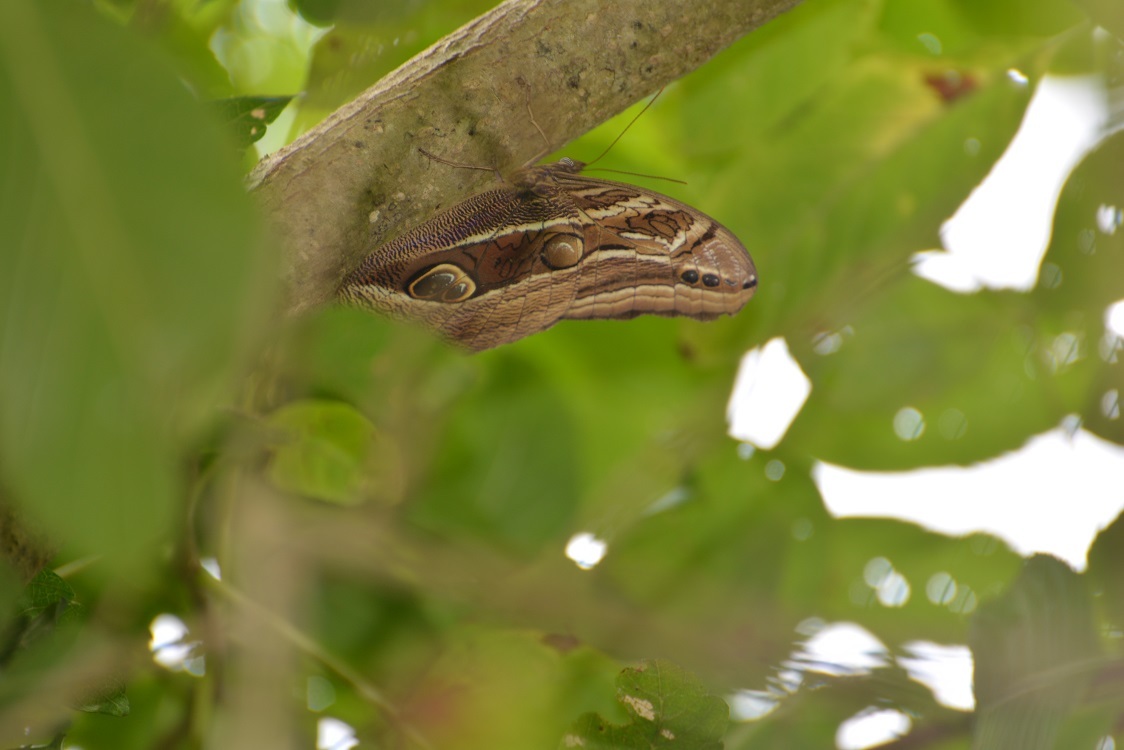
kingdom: Animalia
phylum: Arthropoda
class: Insecta
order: Lepidoptera
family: Nymphalidae
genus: Eryphanis
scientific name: Eryphanis aesacus
